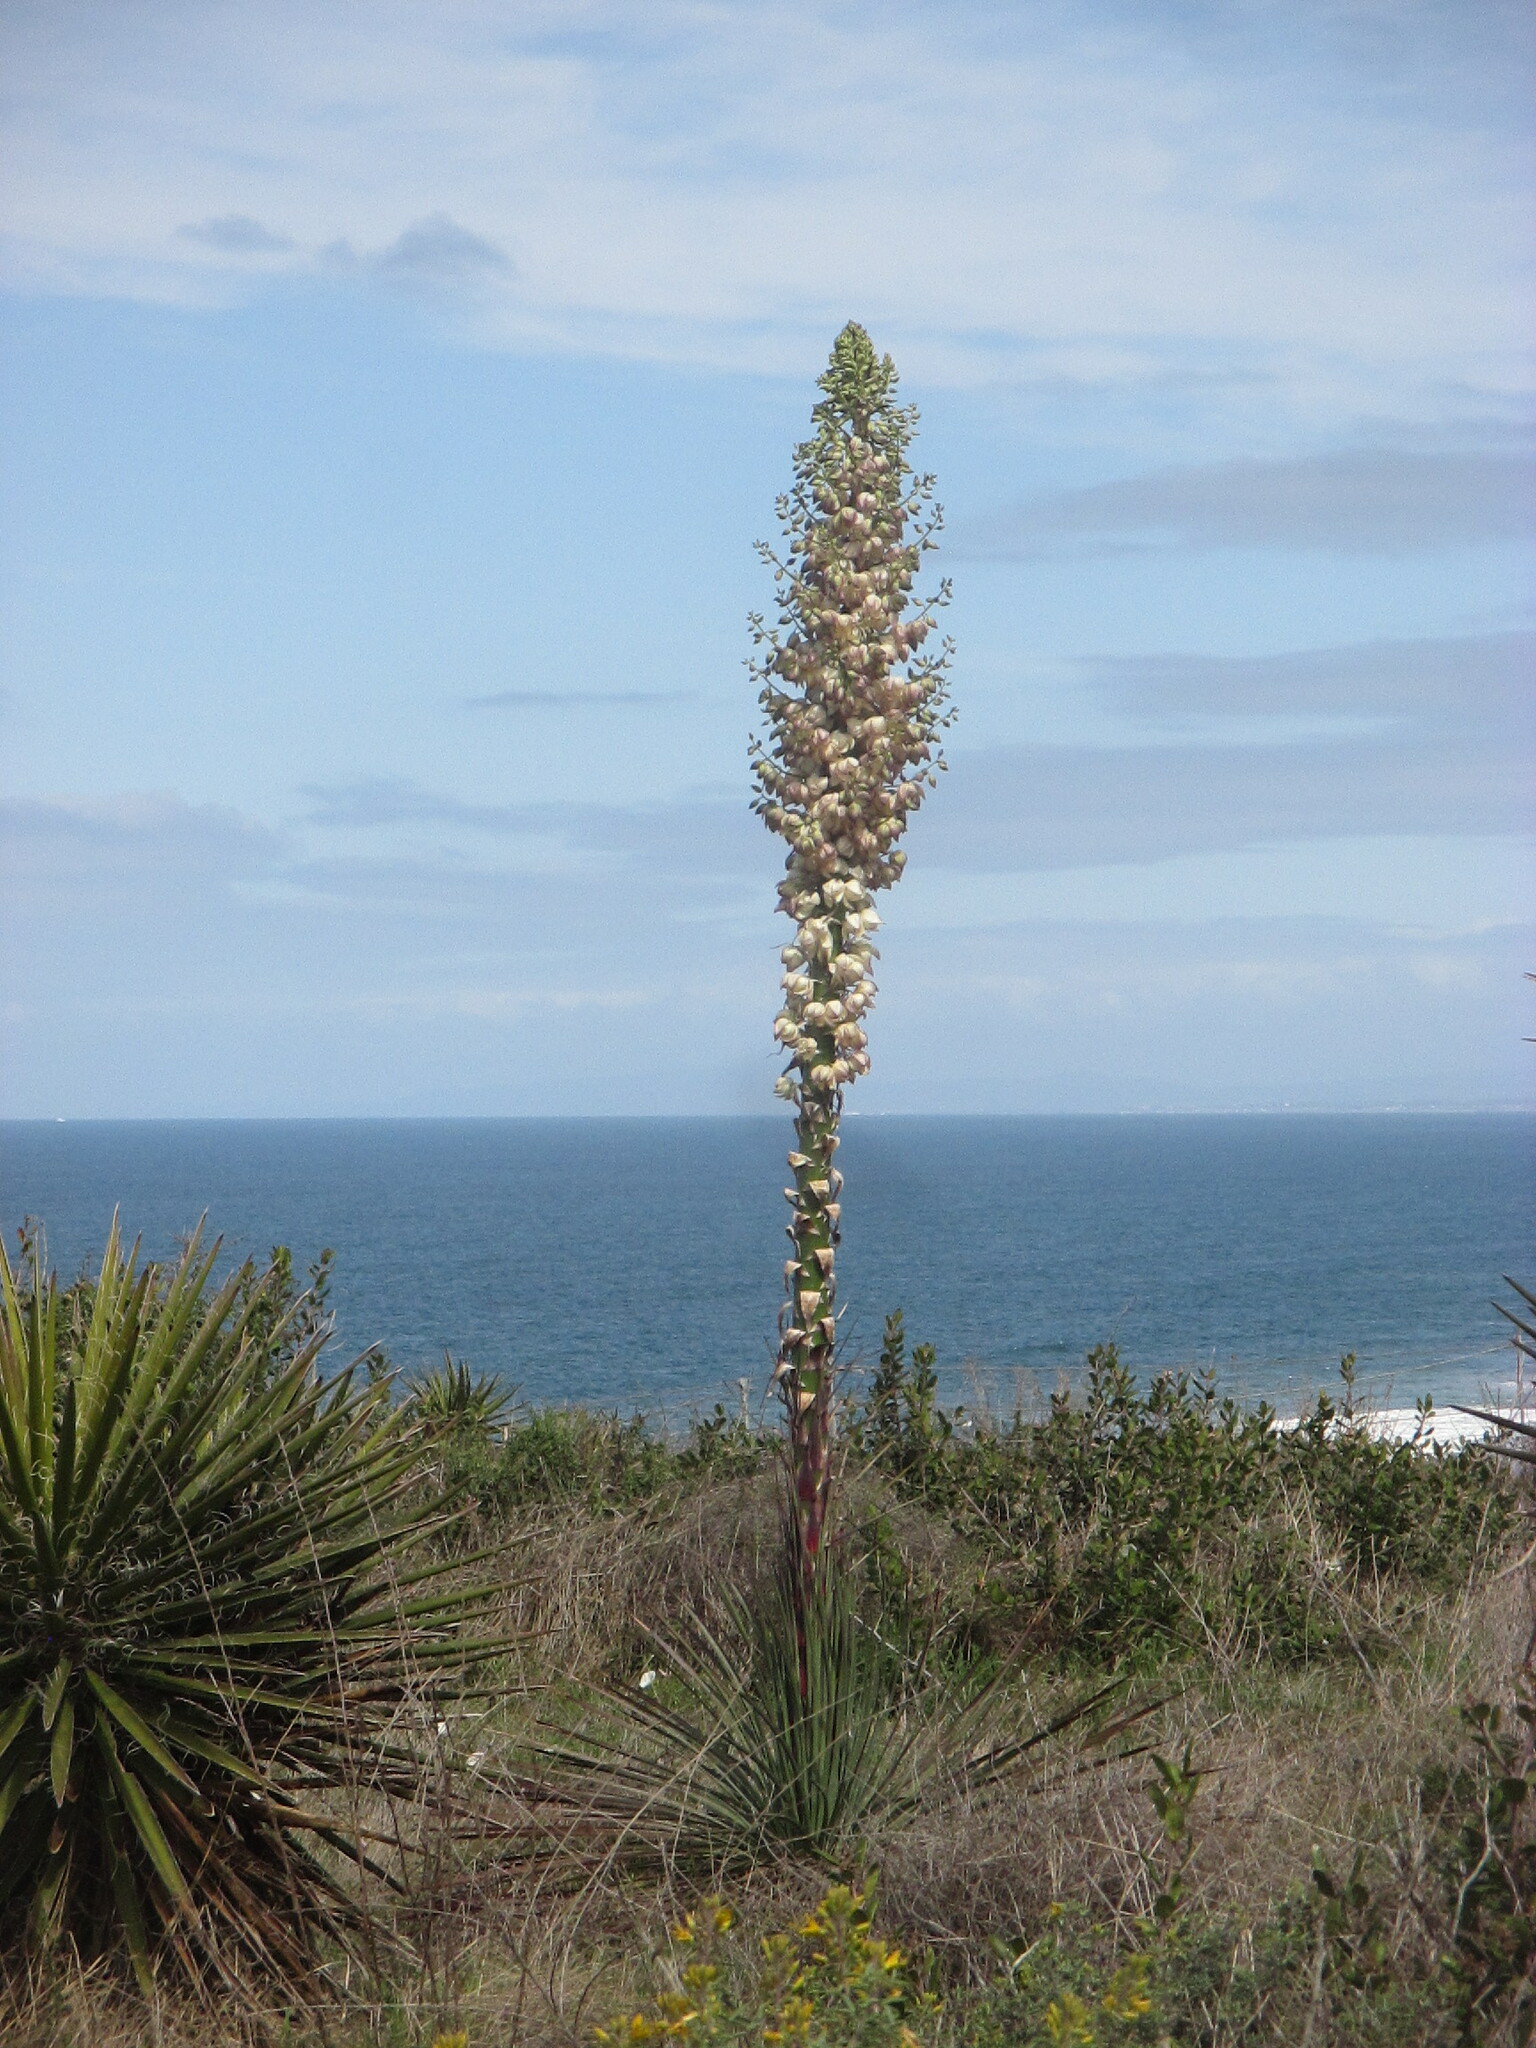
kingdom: Plantae
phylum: Tracheophyta
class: Liliopsida
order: Asparagales
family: Asparagaceae
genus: Hesperoyucca
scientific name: Hesperoyucca whipplei
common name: Our lord's-candle
